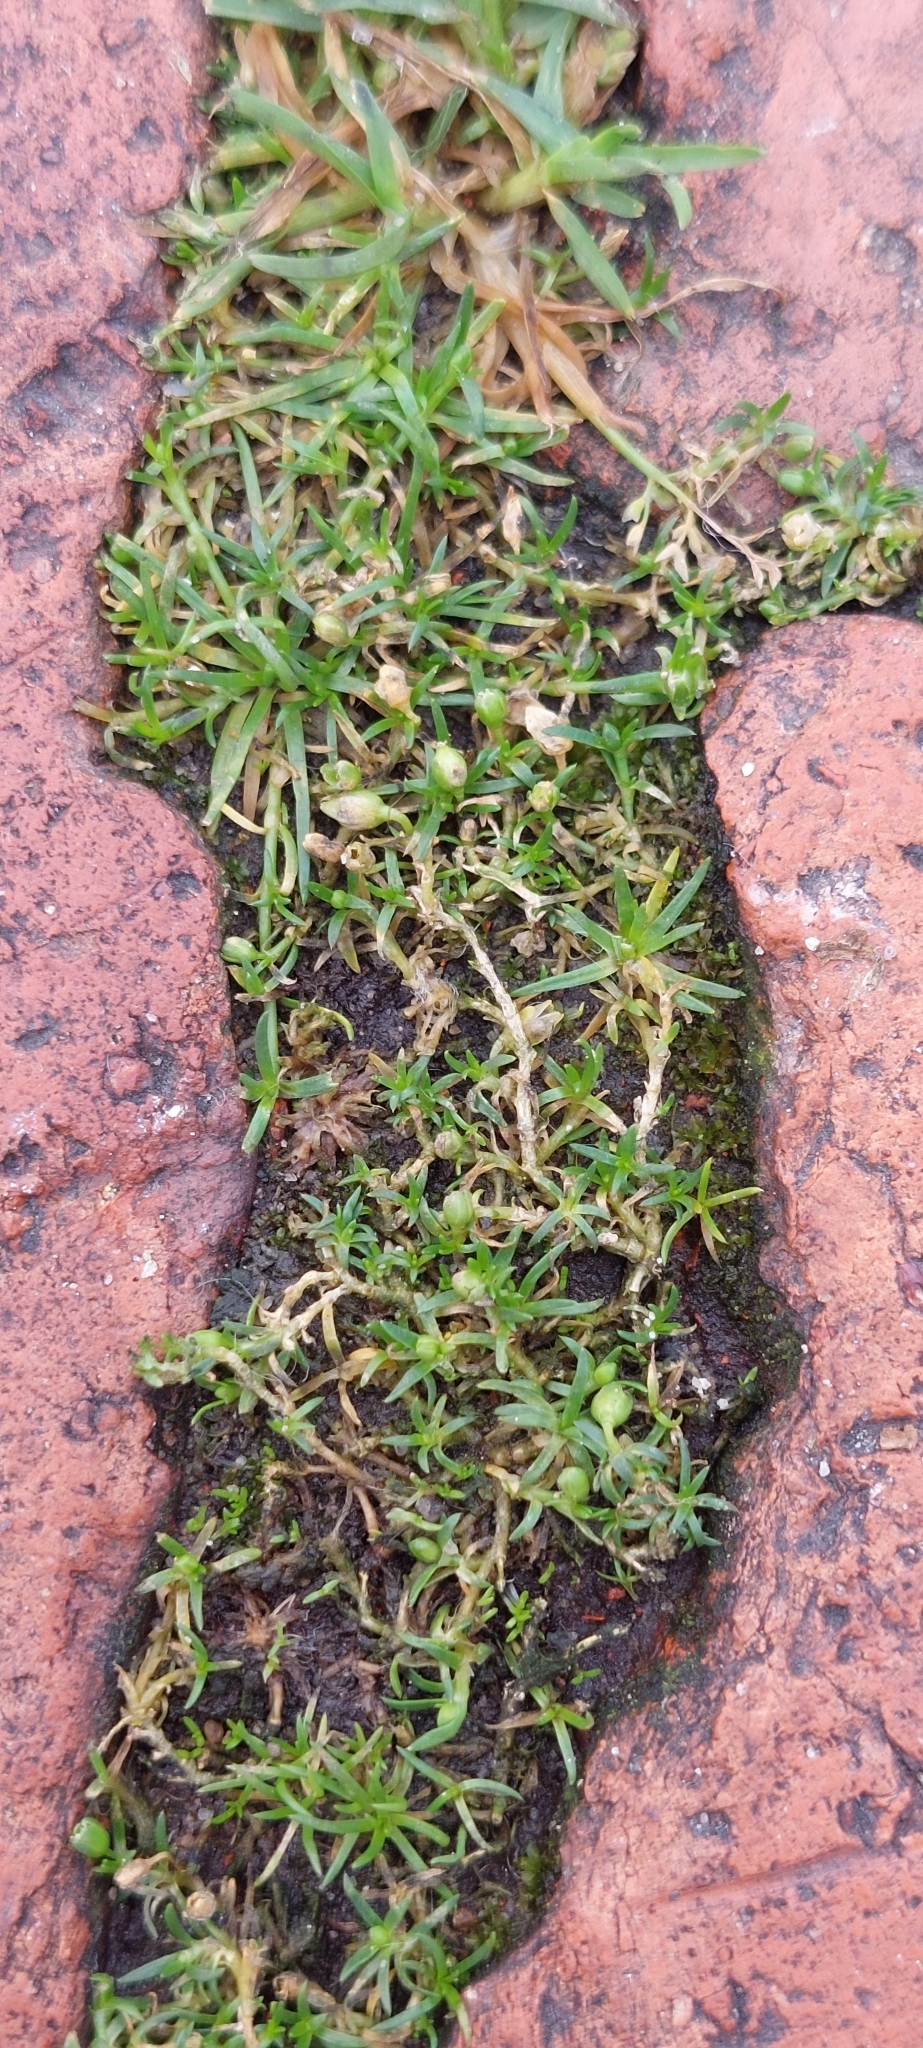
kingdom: Plantae
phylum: Tracheophyta
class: Magnoliopsida
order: Caryophyllales
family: Caryophyllaceae
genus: Sagina
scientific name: Sagina procumbens
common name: Procumbent pearlwort
